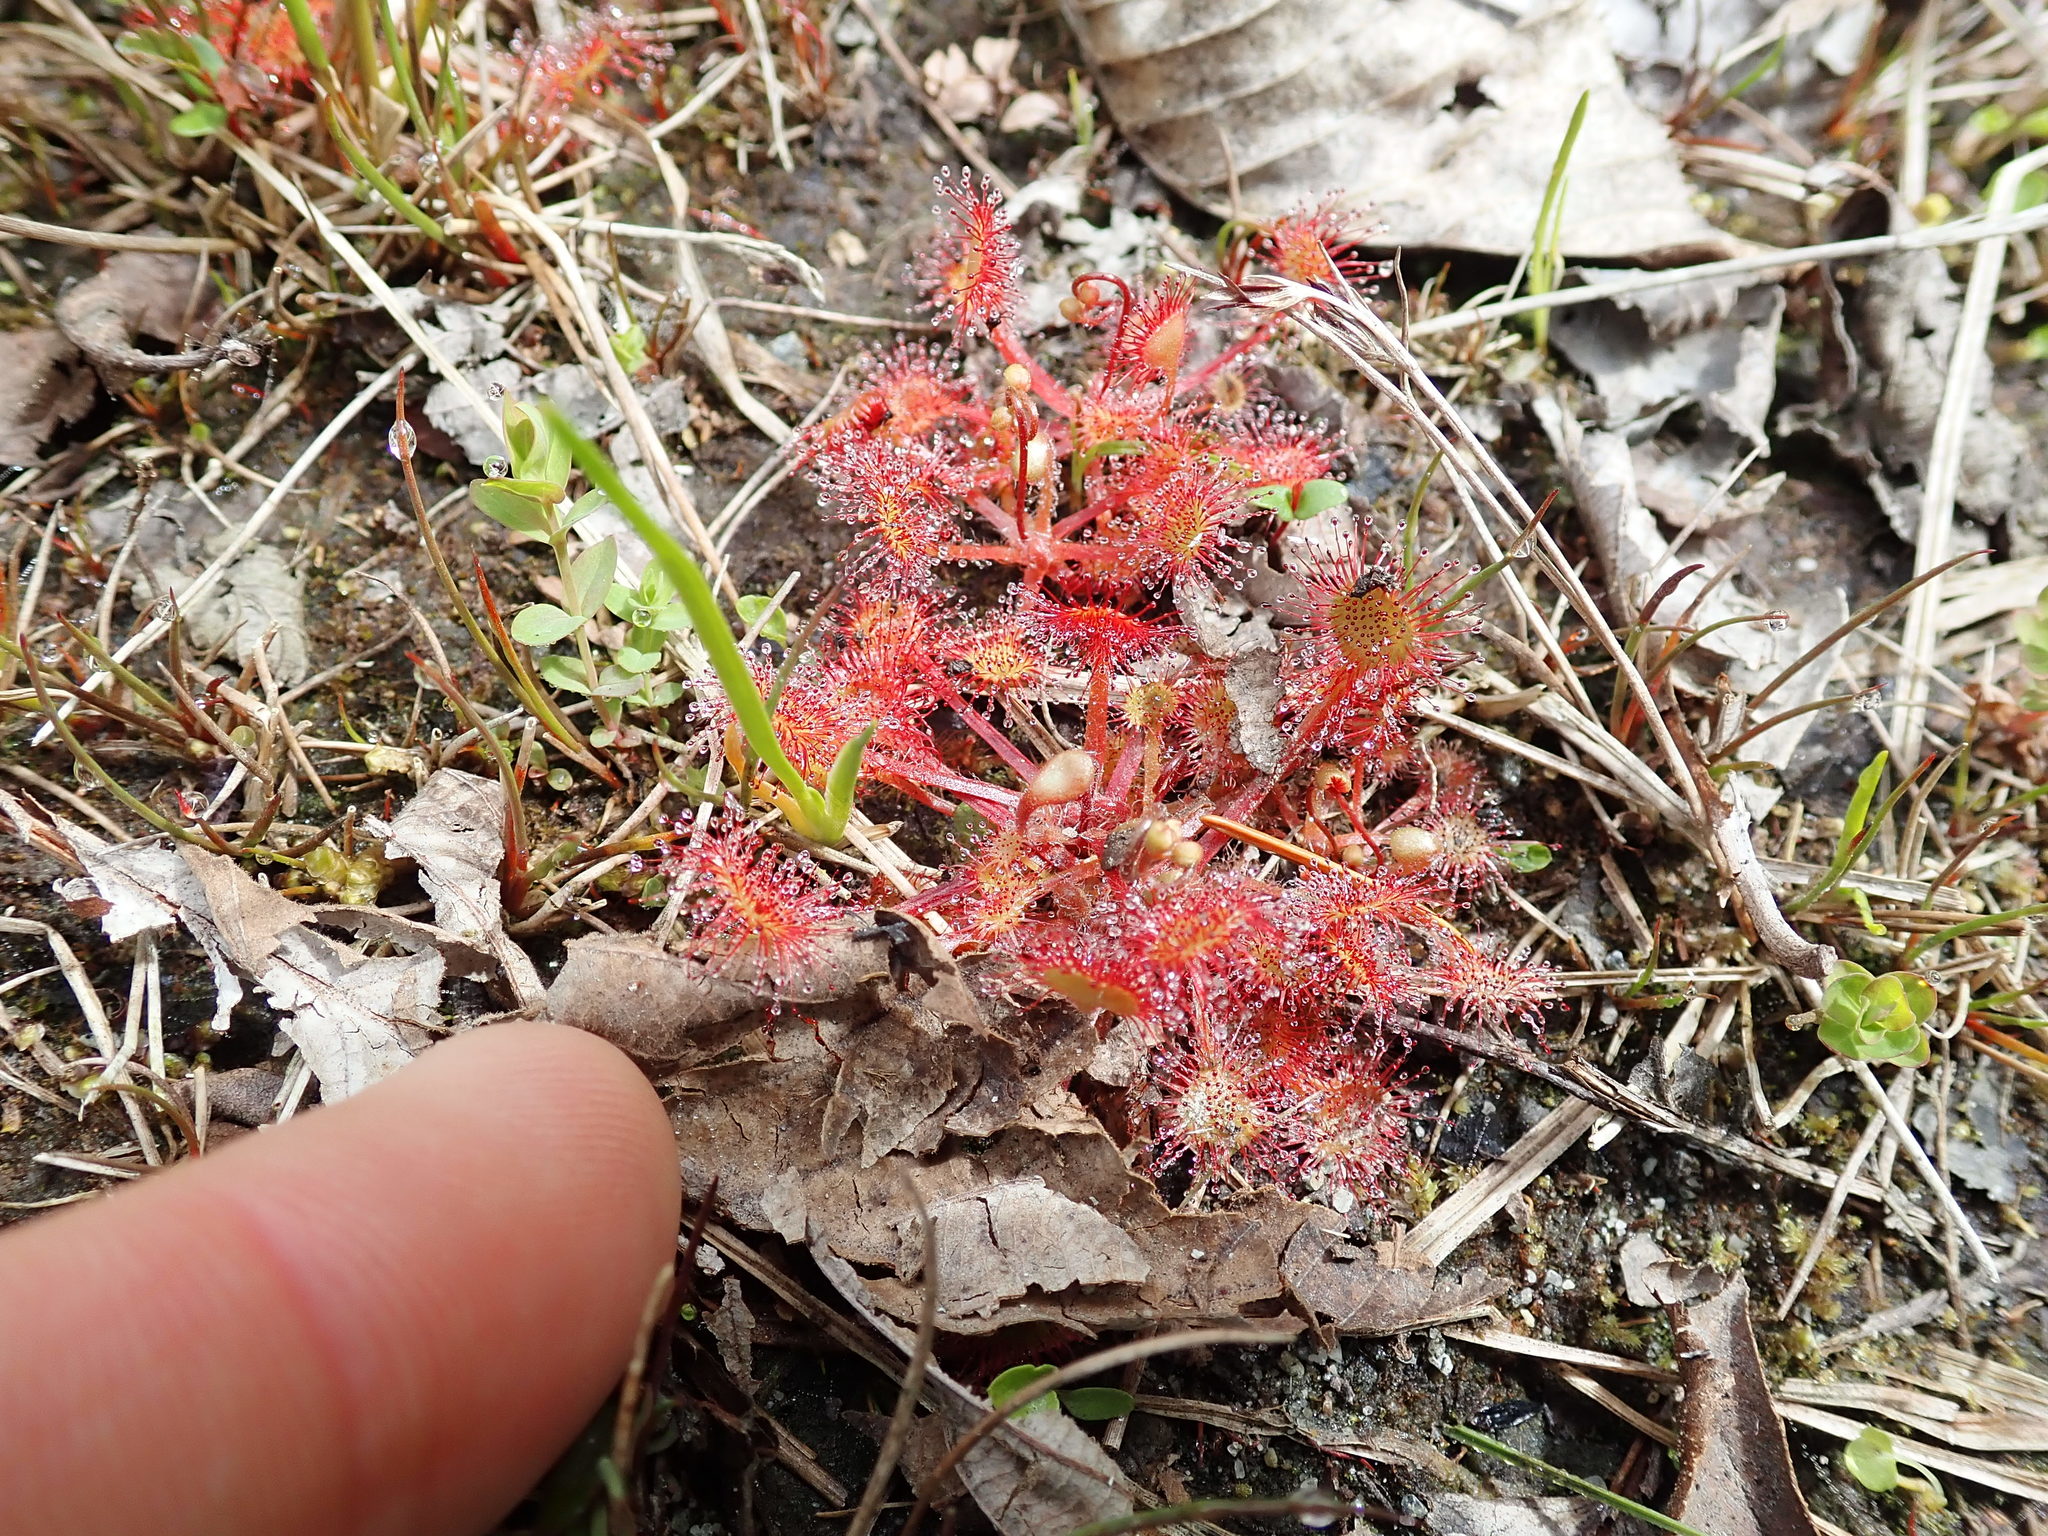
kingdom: Plantae
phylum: Tracheophyta
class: Magnoliopsida
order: Caryophyllales
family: Droseraceae
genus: Drosera
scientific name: Drosera rotundifolia
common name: Round-leaved sundew
